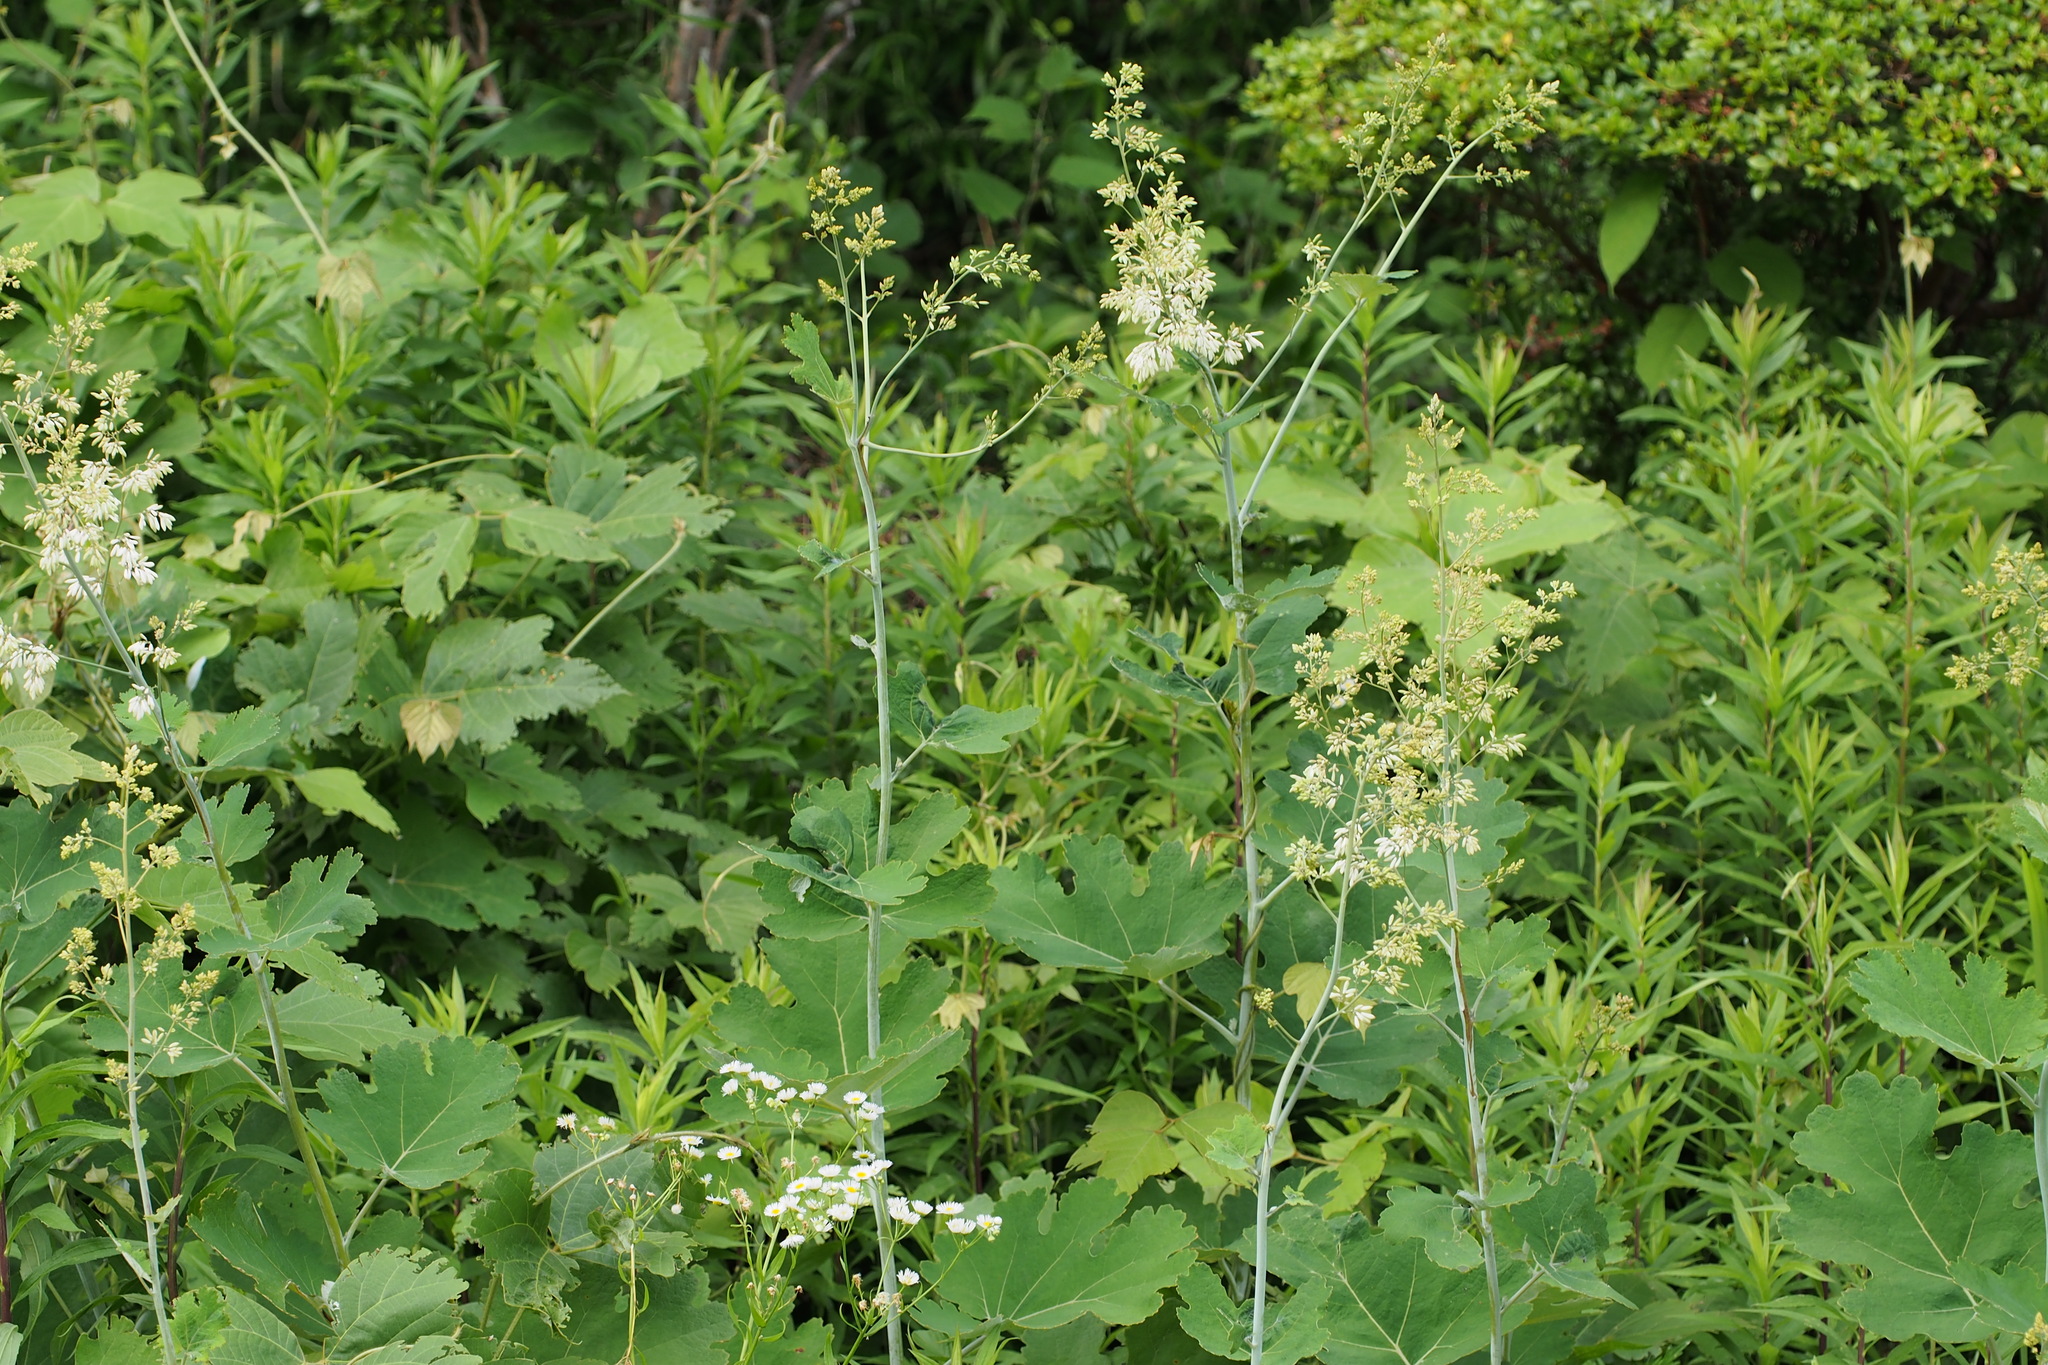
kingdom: Plantae
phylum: Tracheophyta
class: Magnoliopsida
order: Ranunculales
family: Papaveraceae
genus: Macleaya
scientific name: Macleaya cordata
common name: Plume poppy
